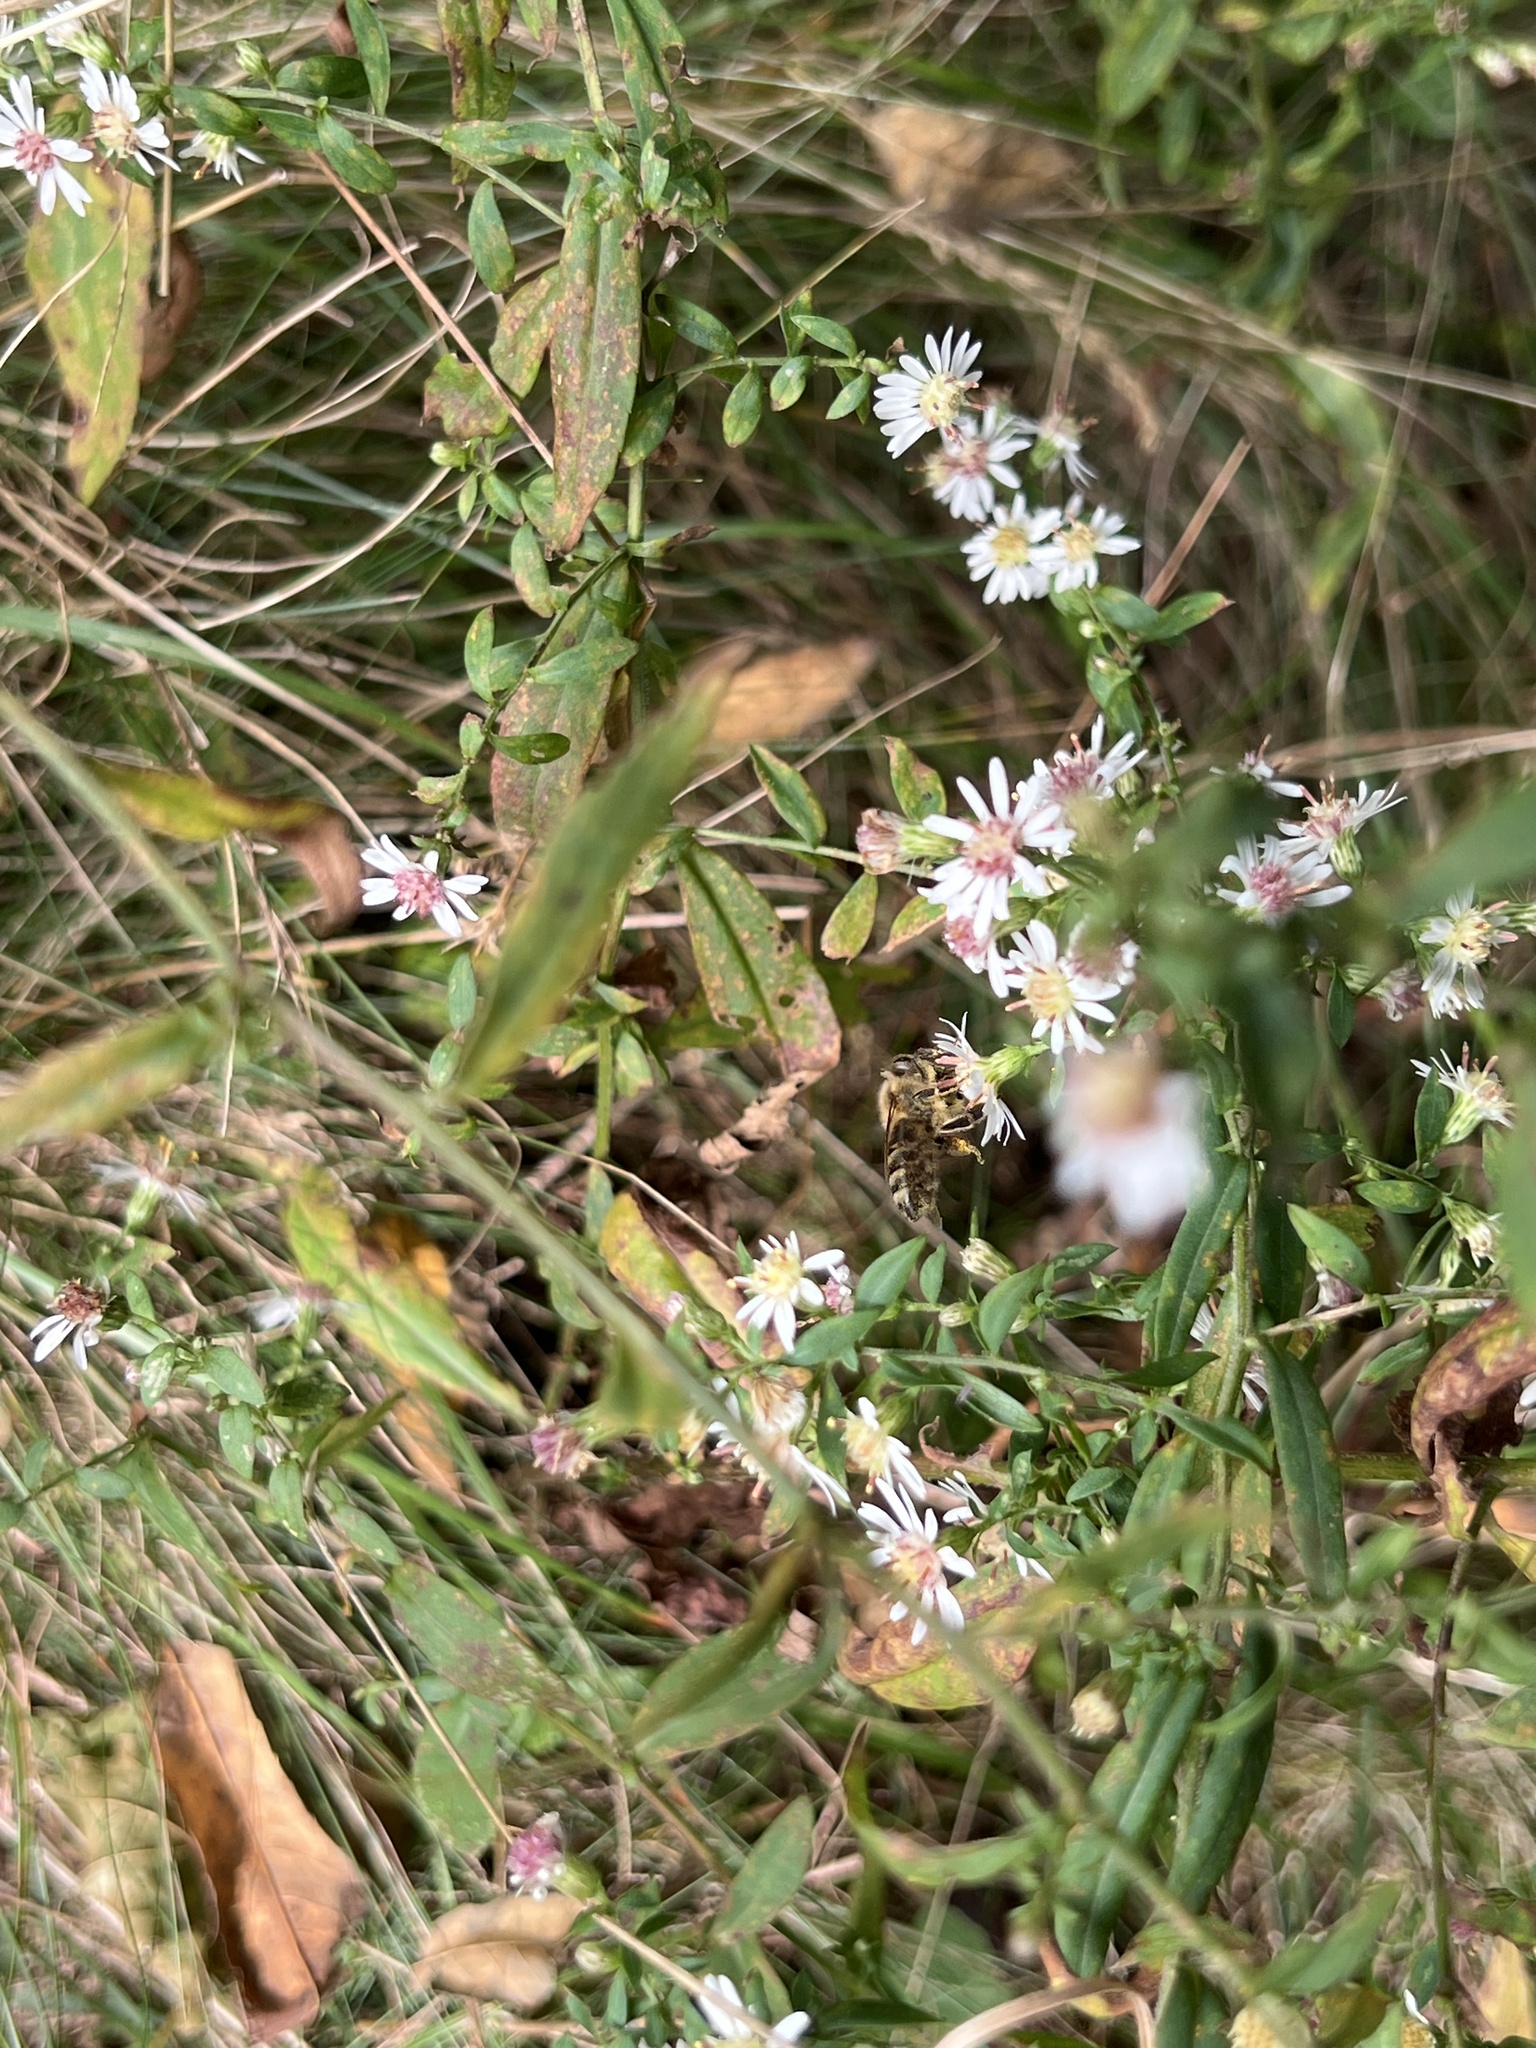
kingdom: Animalia
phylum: Arthropoda
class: Insecta
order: Hymenoptera
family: Apidae
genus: Apis
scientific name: Apis mellifera
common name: Honey bee
